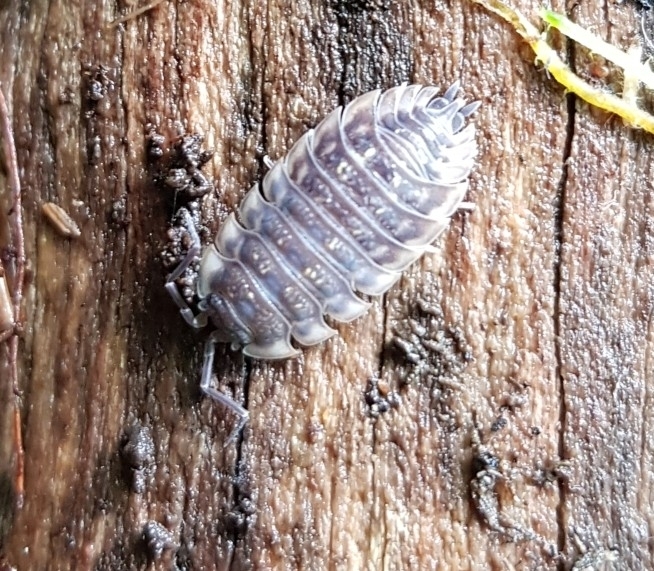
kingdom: Animalia
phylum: Arthropoda
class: Malacostraca
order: Isopoda
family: Oniscidae
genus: Oniscus
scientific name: Oniscus asellus
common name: Common shiny woodlouse
